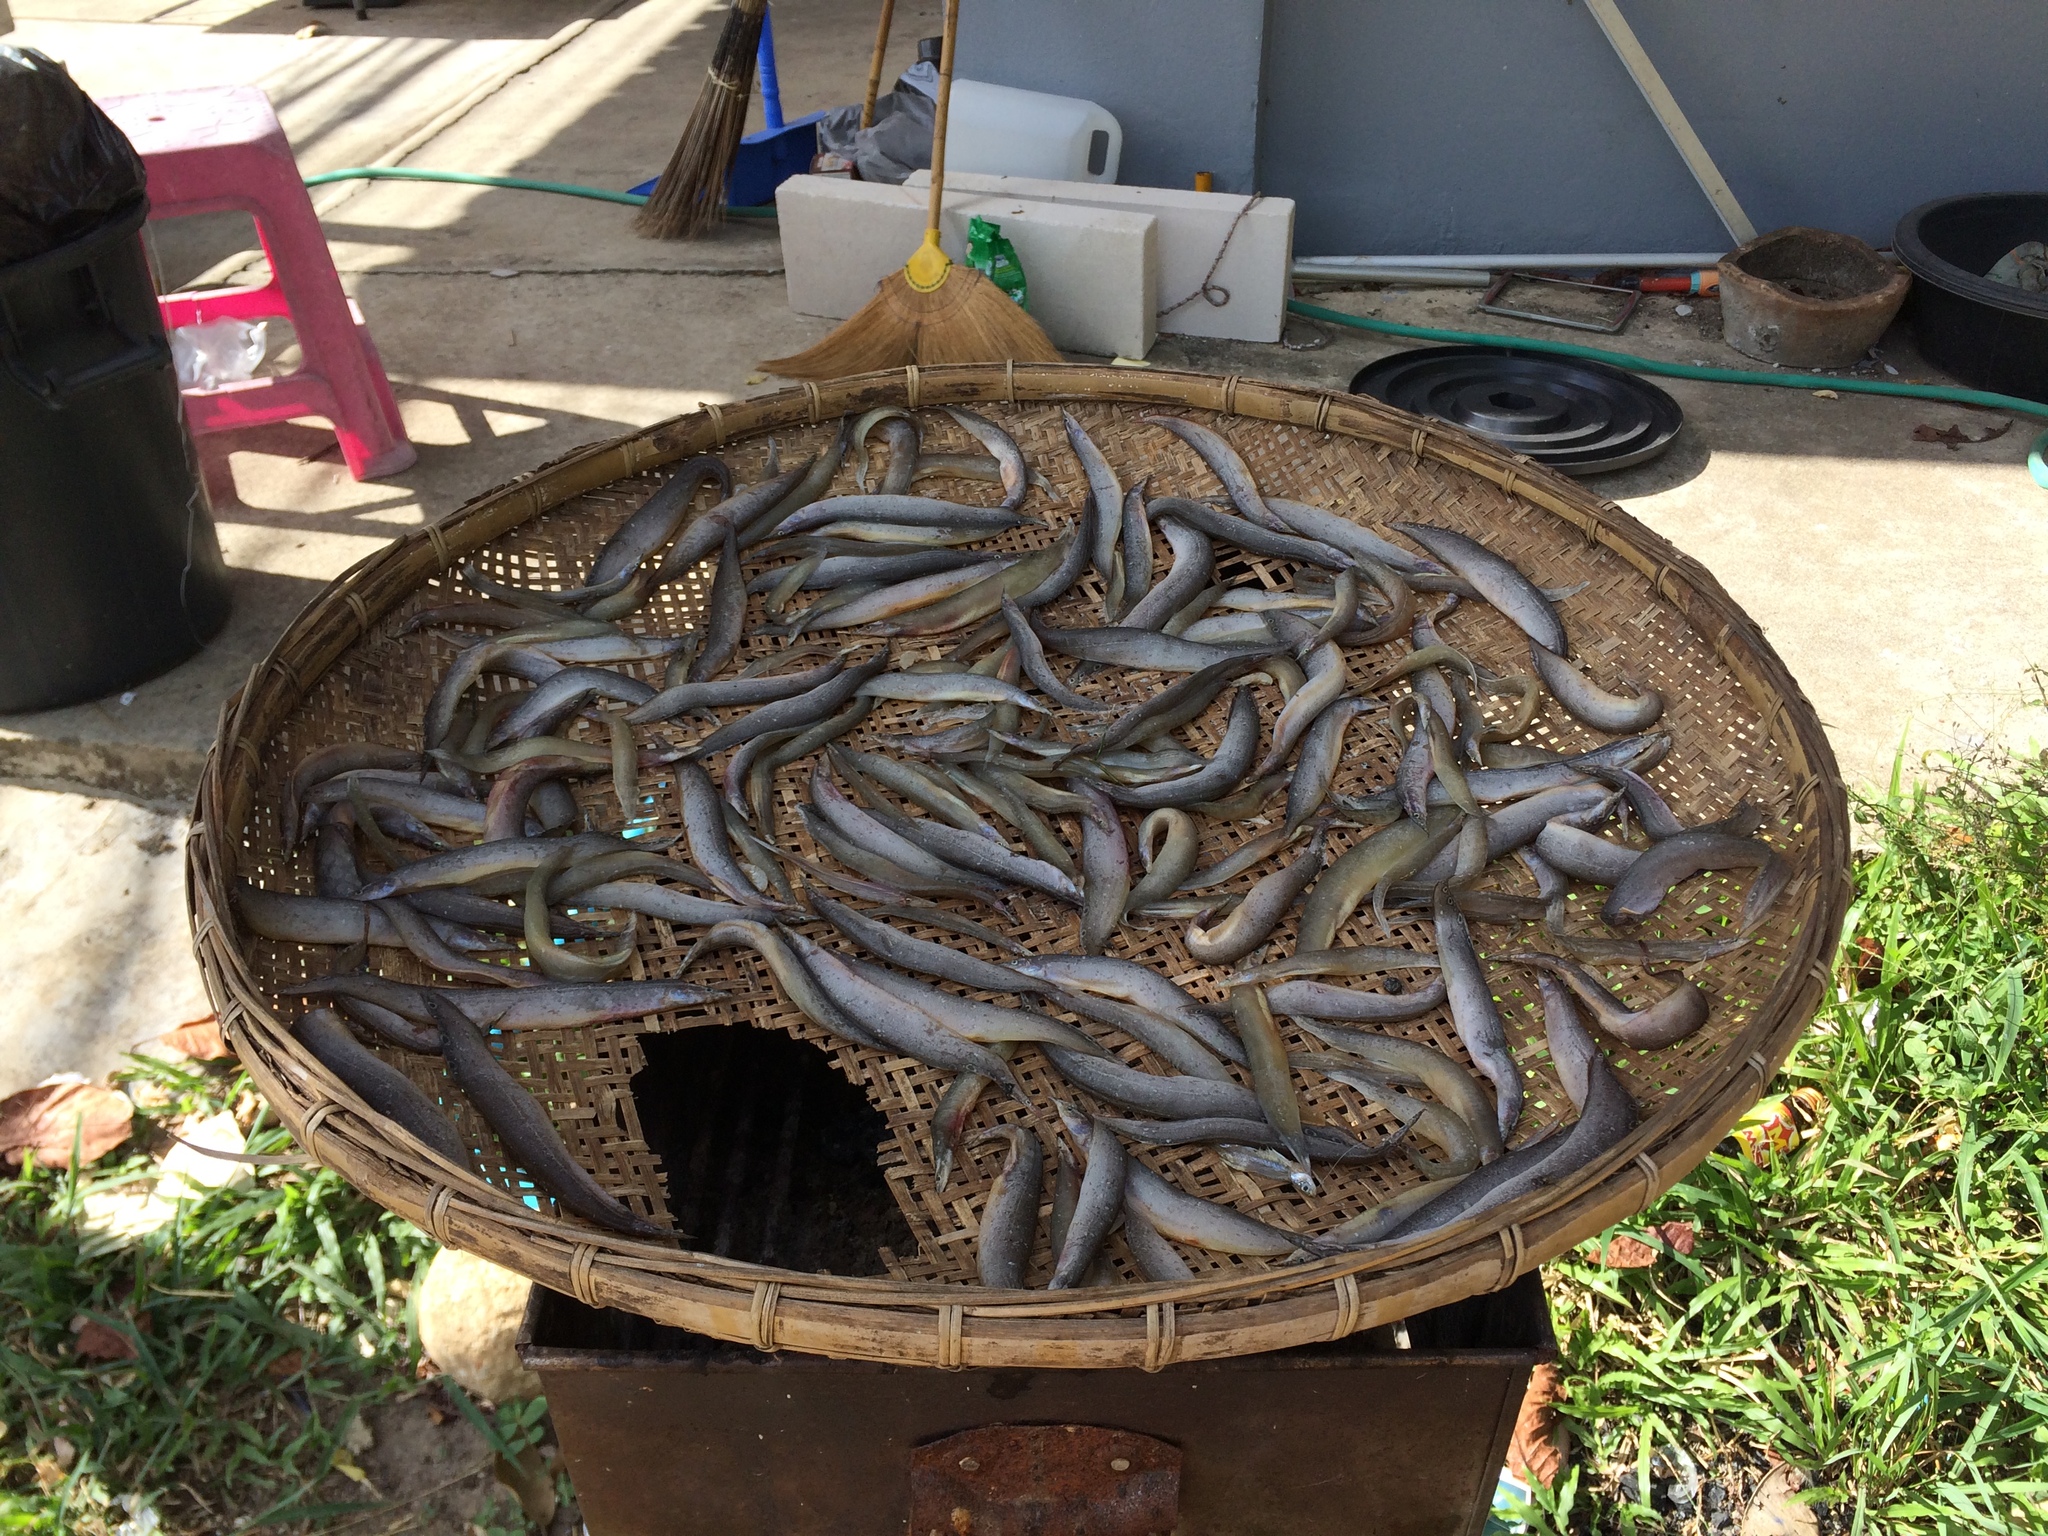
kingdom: Animalia
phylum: Chordata
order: Synbranchiformes
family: Mastacembelidae
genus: Macrognathus
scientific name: Macrognathus siamensis
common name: Spotfin spiny eel
